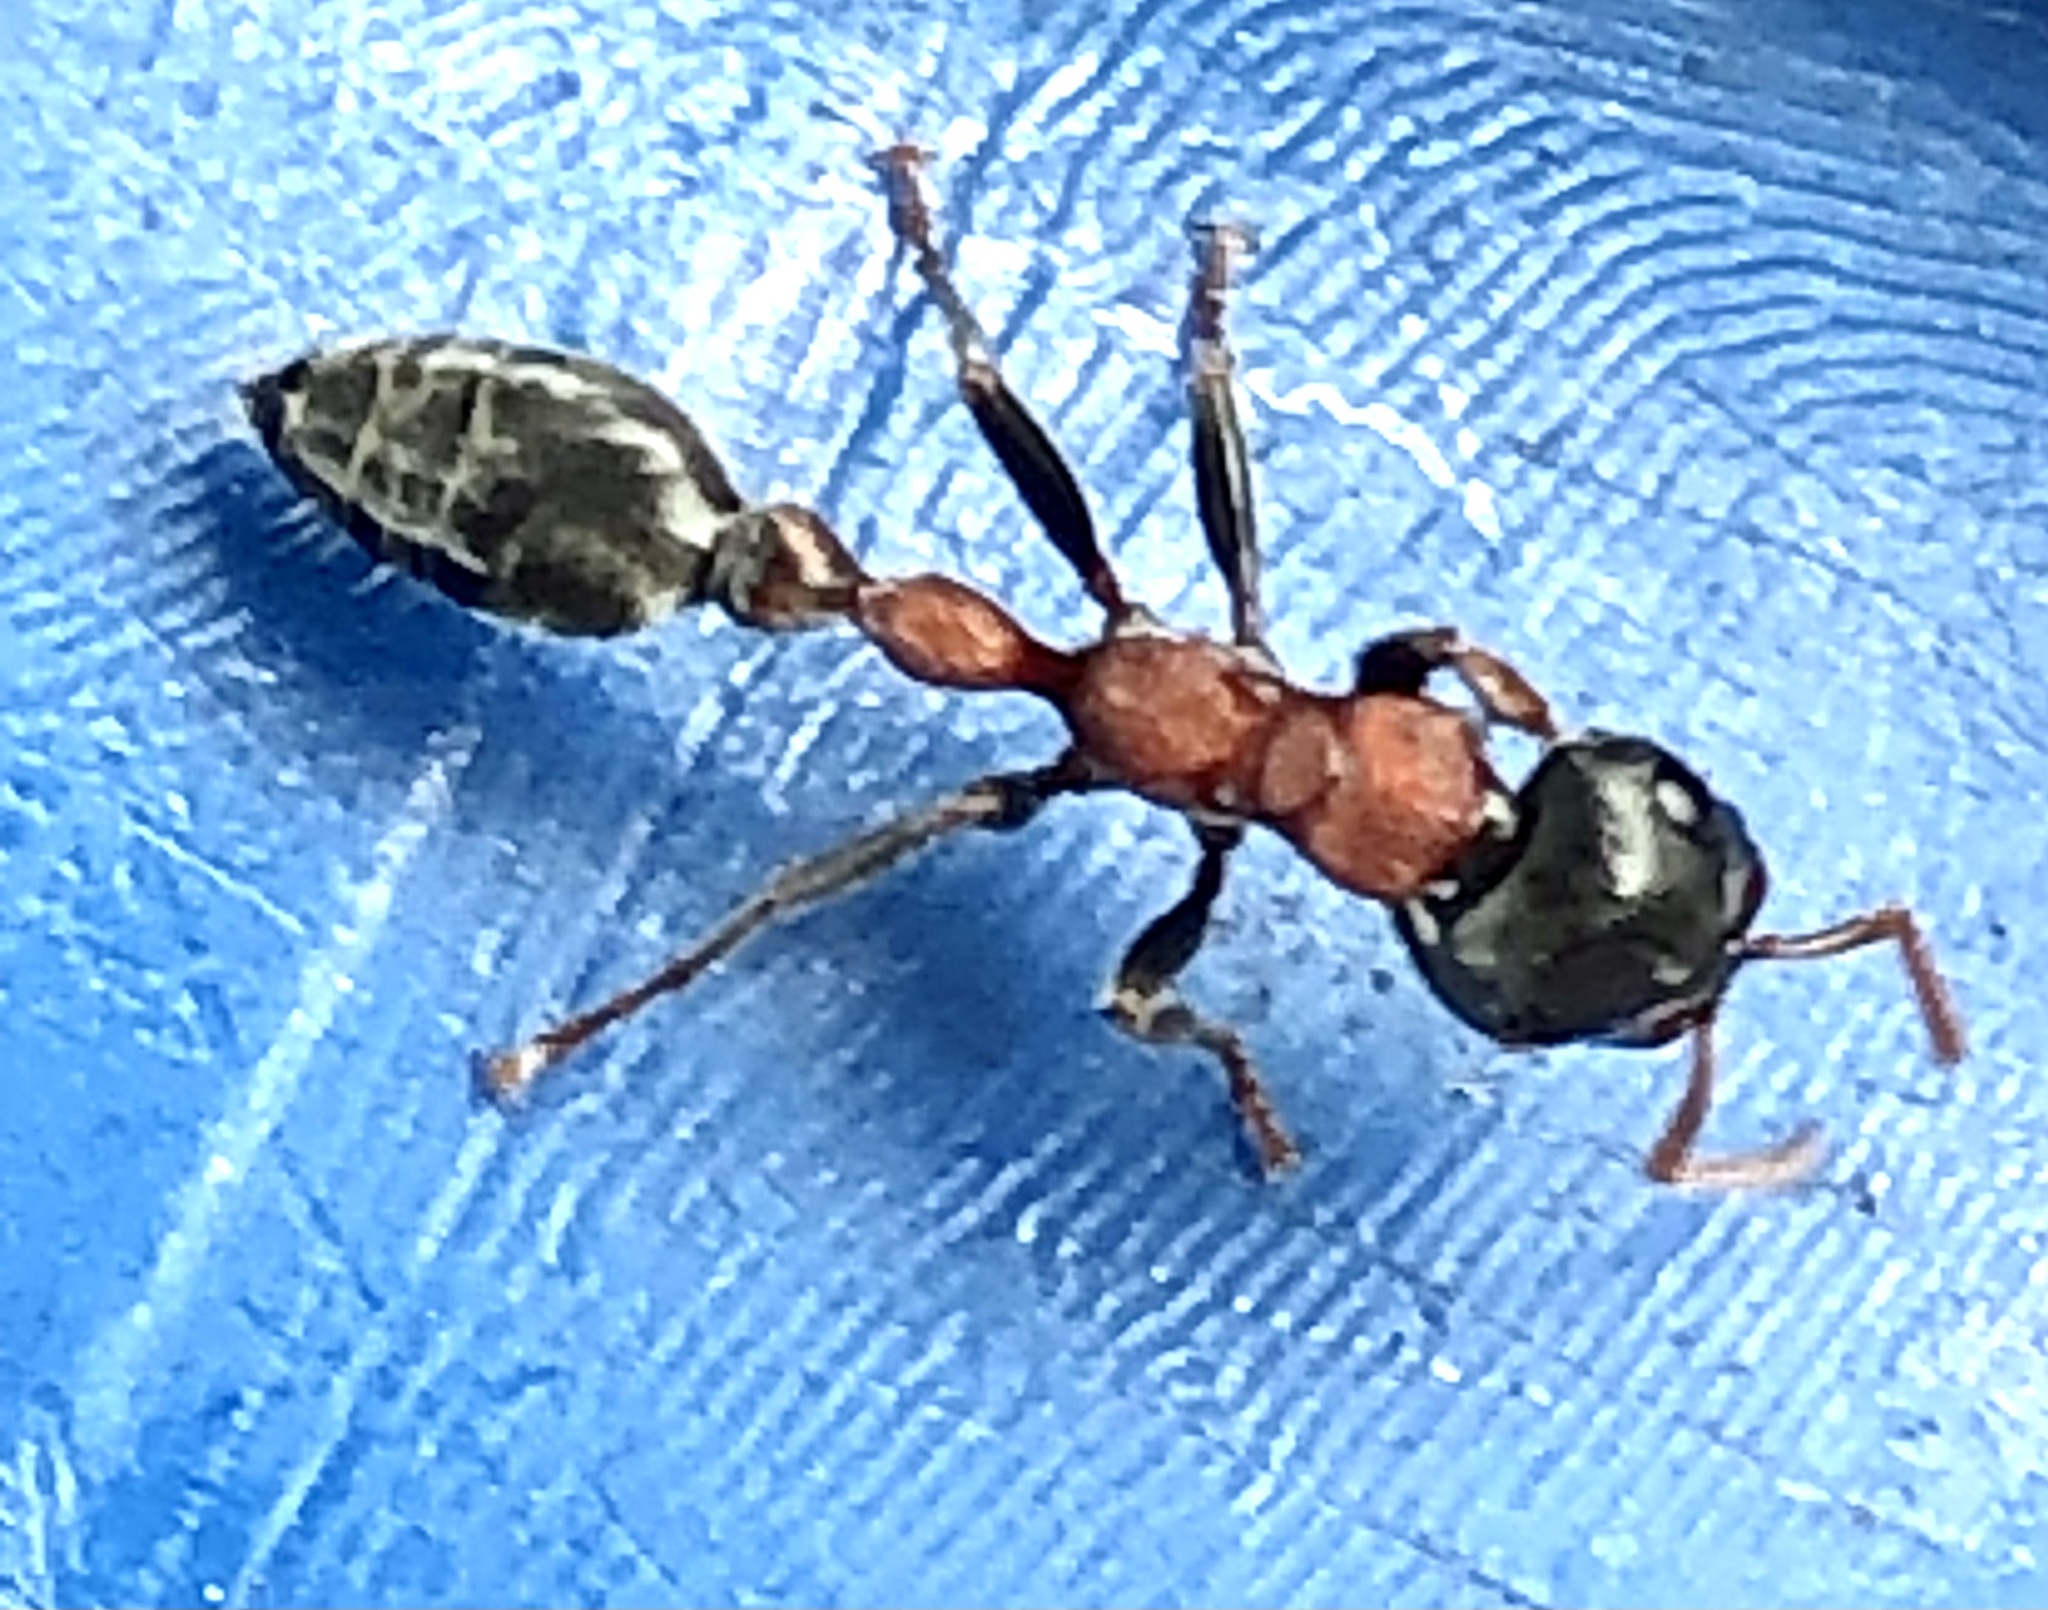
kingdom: Animalia
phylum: Arthropoda
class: Insecta
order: Hymenoptera
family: Formicidae
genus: Tetraponera
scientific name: Tetraponera rufonigra
